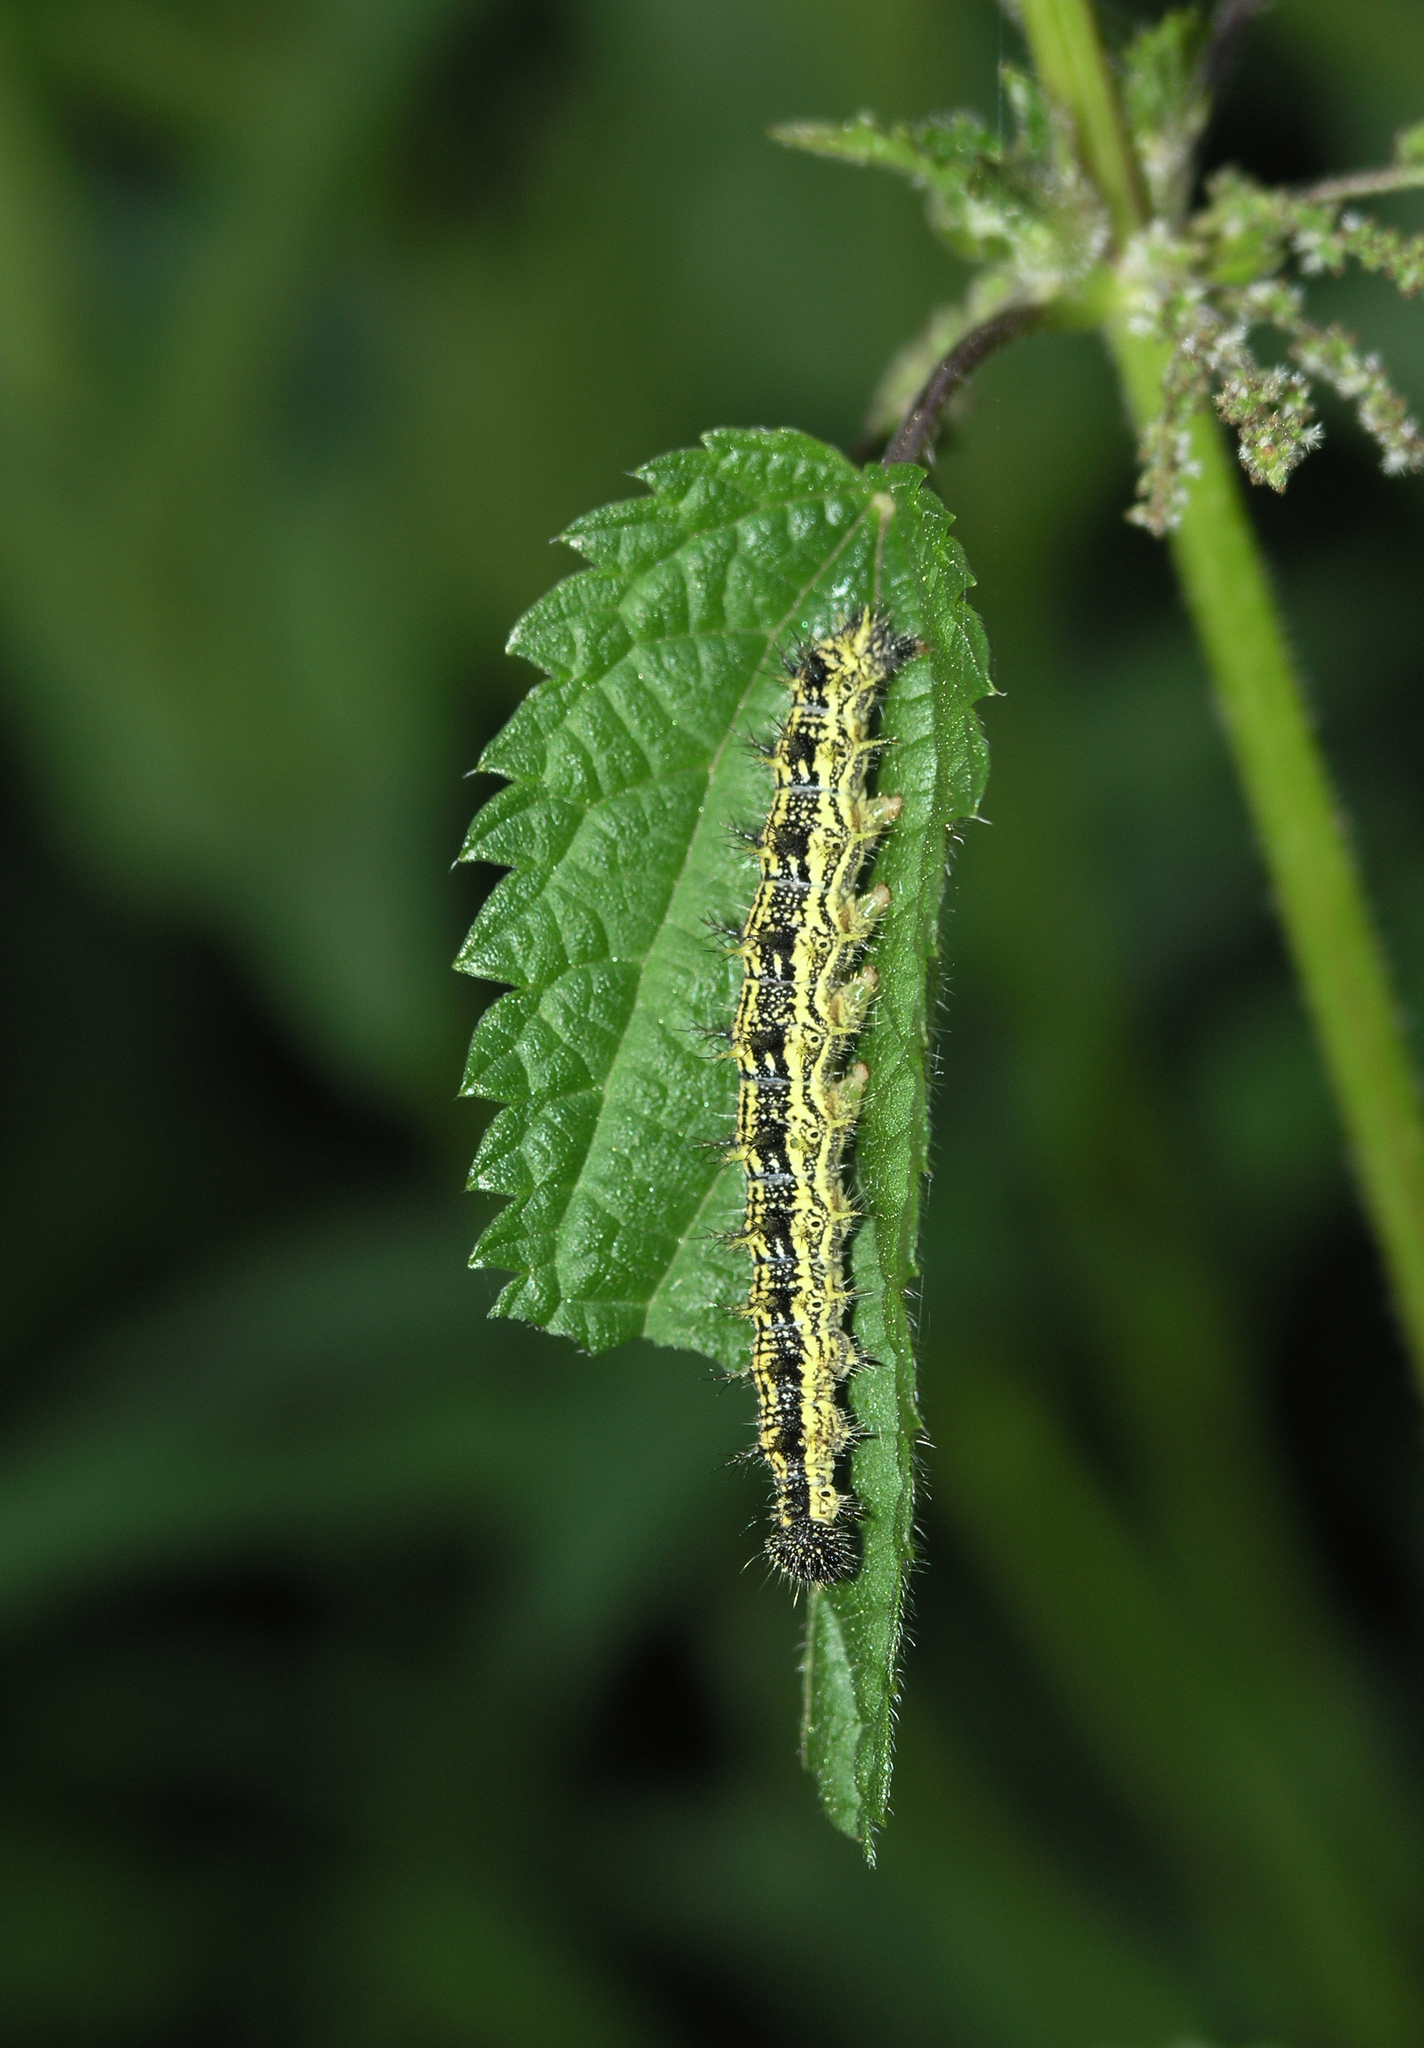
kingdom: Plantae
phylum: Tracheophyta
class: Magnoliopsida
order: Rosales
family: Urticaceae
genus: Urtica
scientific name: Urtica dioica
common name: Common nettle
